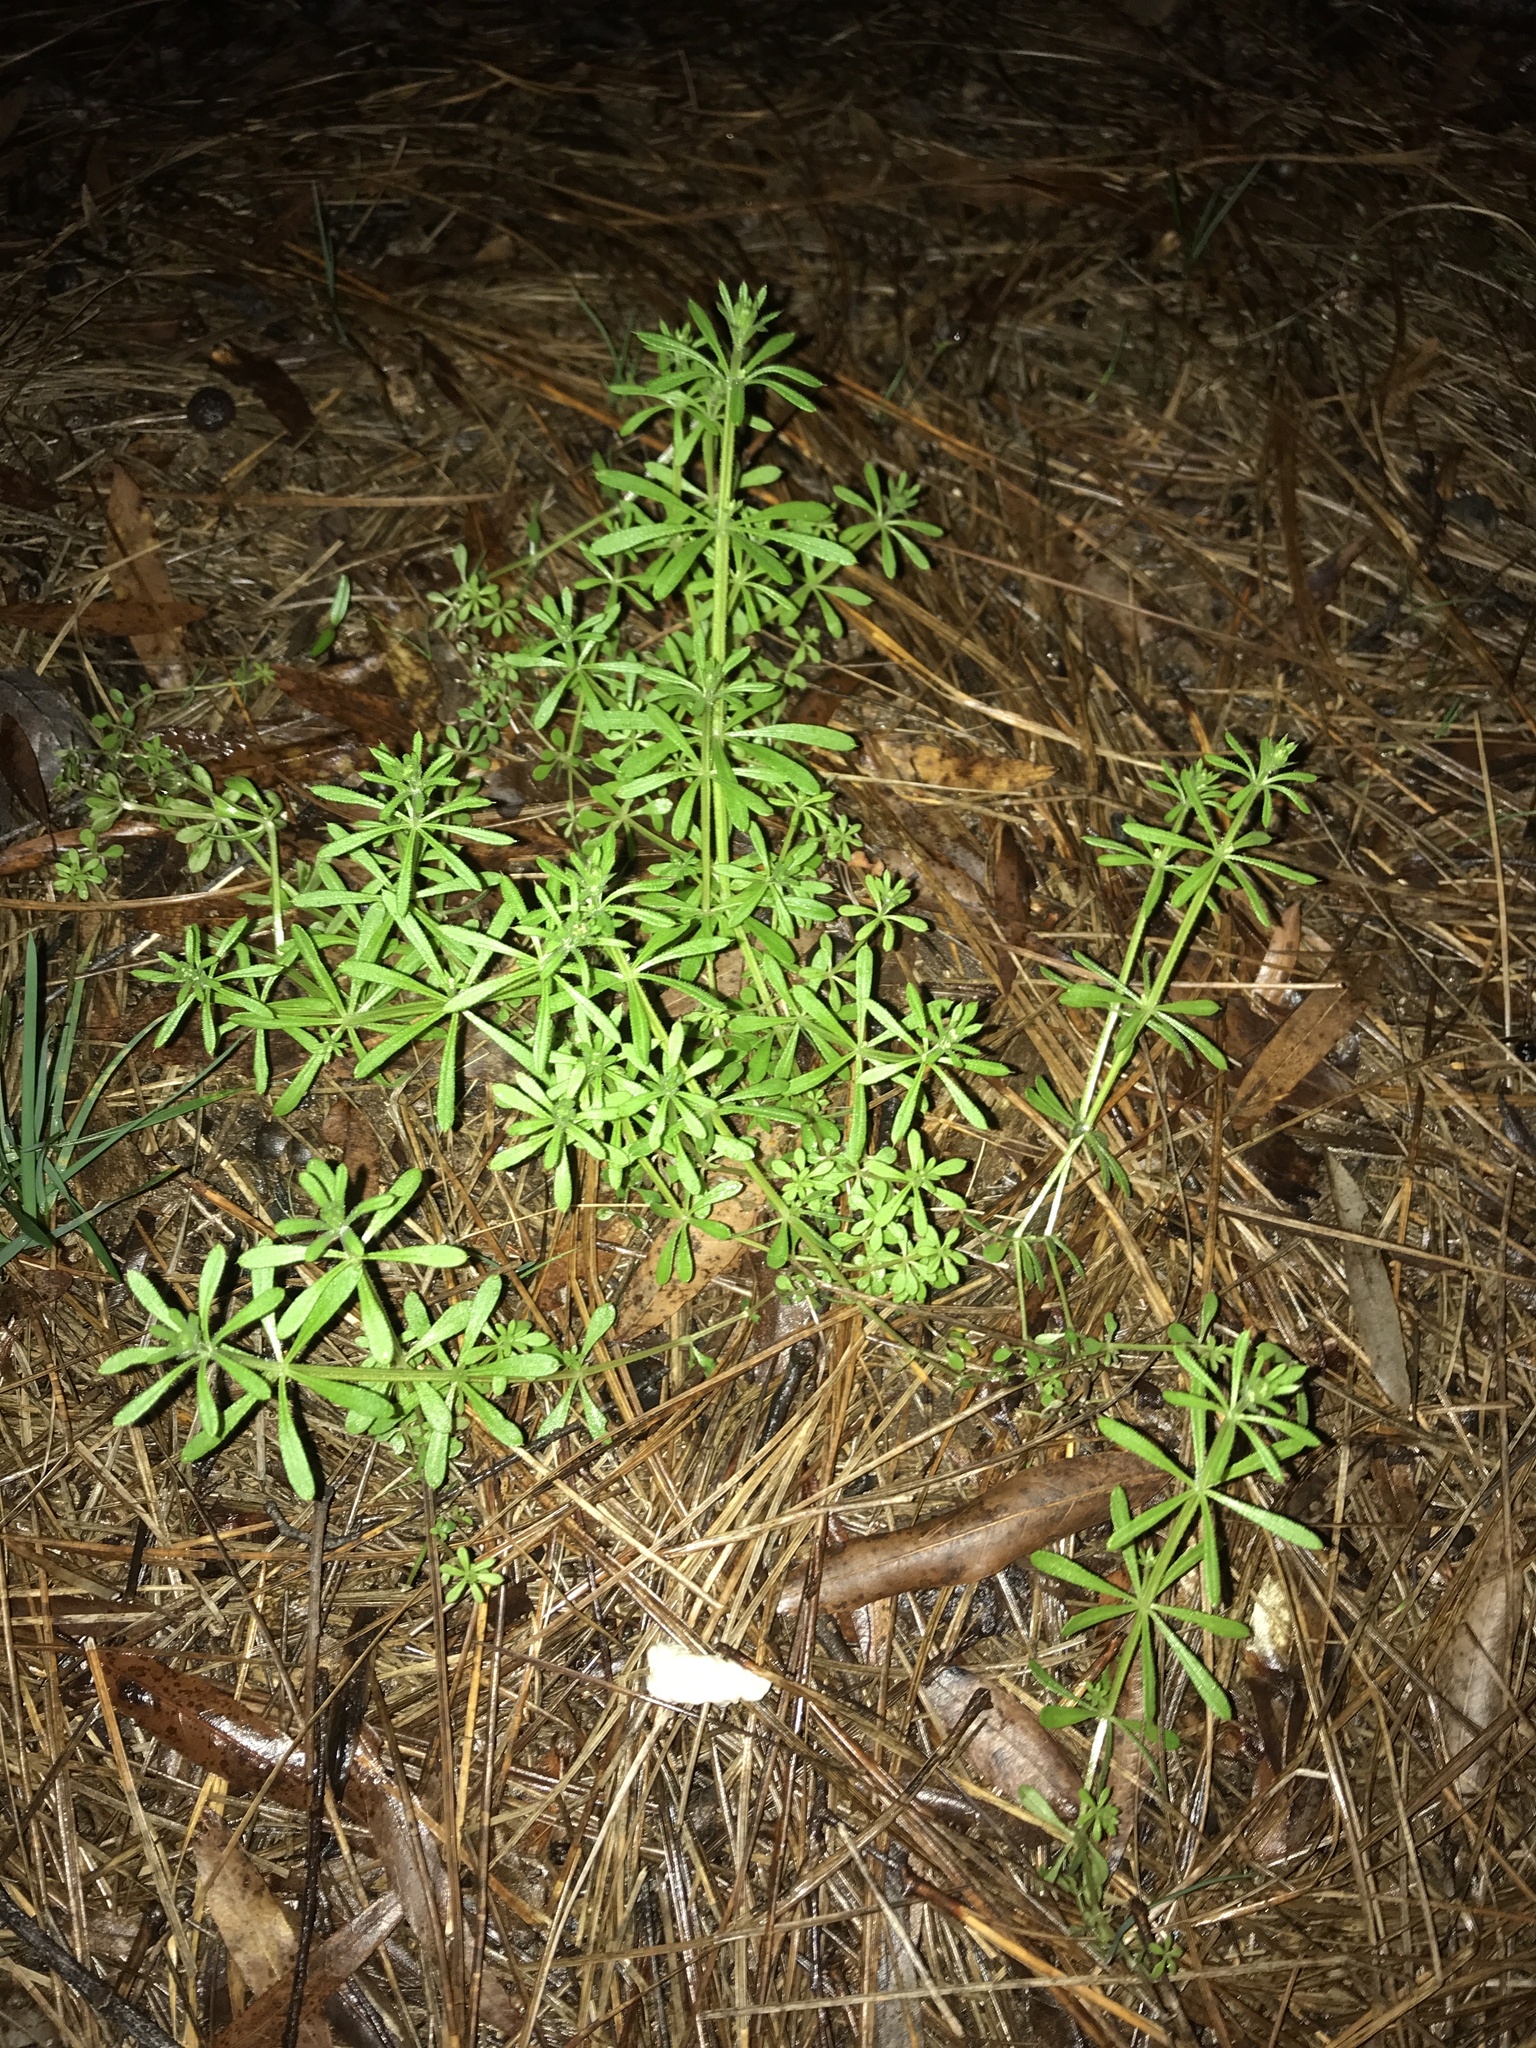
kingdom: Plantae
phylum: Tracheophyta
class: Magnoliopsida
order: Gentianales
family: Rubiaceae
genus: Galium
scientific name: Galium aparine
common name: Cleavers
